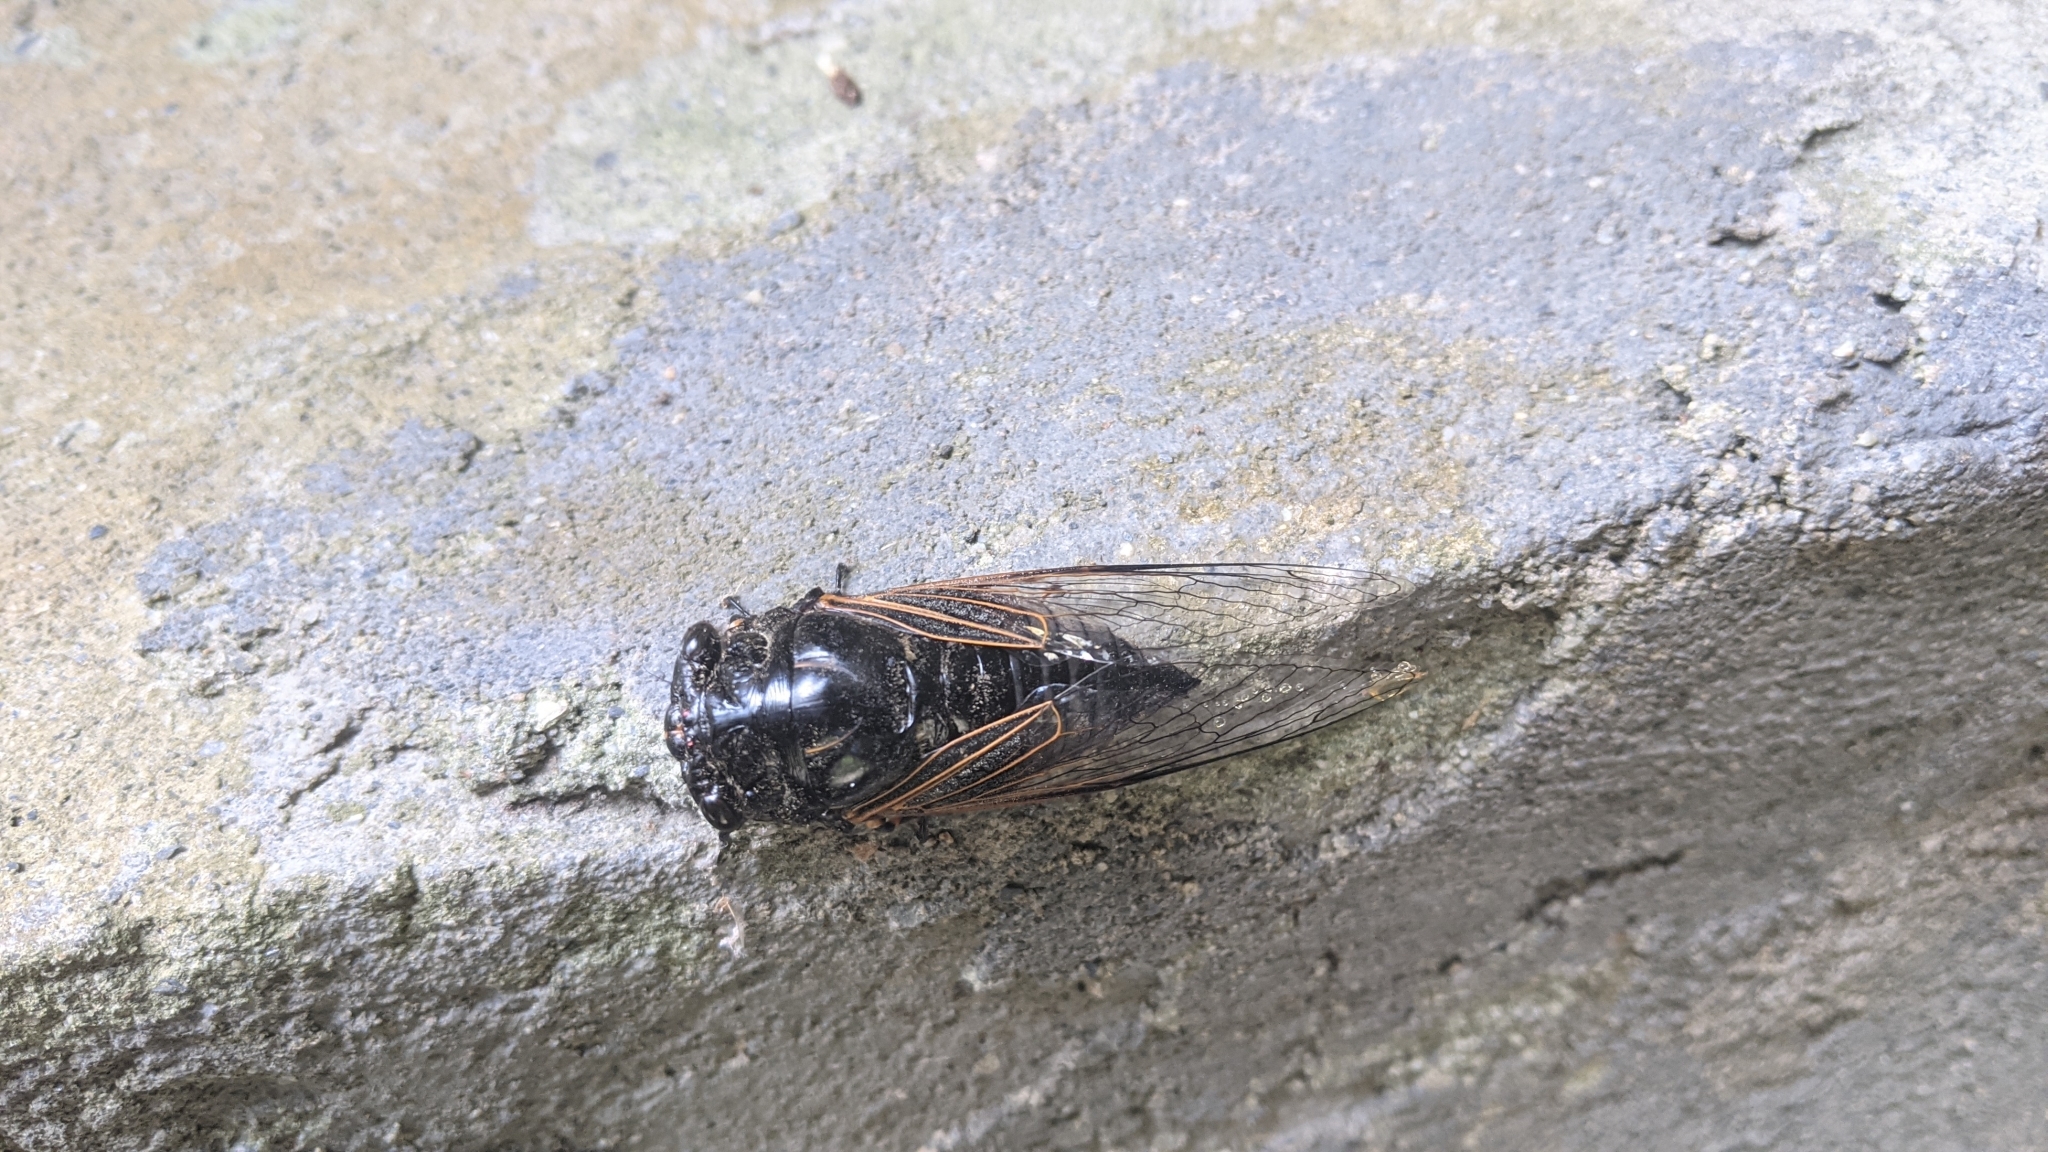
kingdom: Animalia
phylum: Arthropoda
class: Insecta
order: Hemiptera
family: Cicadidae
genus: Cryptotympana
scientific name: Cryptotympana atrata
